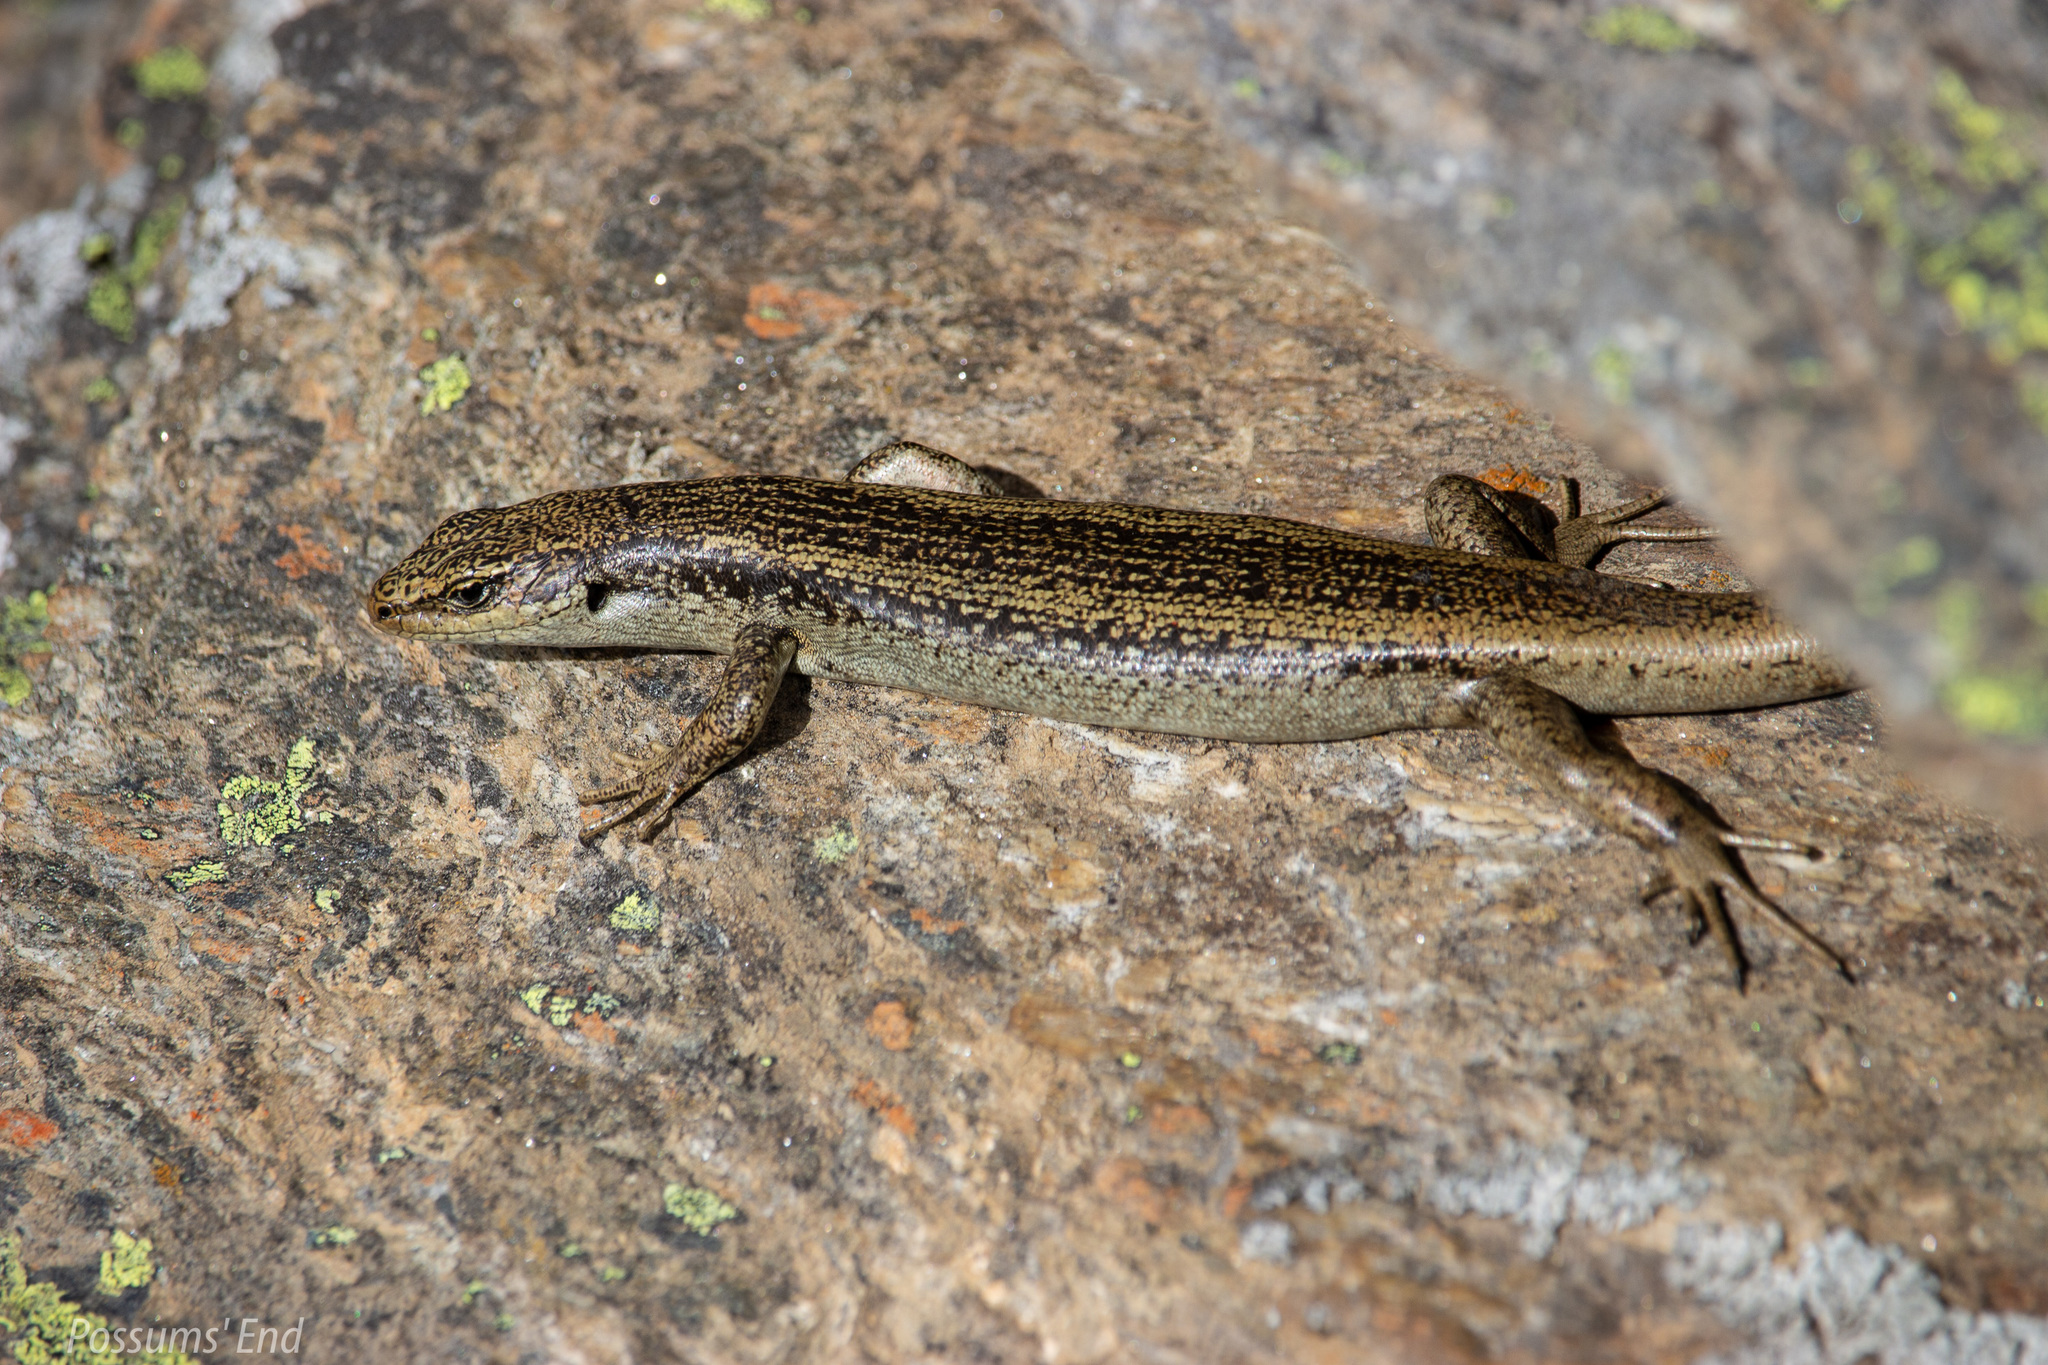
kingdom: Animalia
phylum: Chordata
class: Squamata
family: Scincidae
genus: Oligosoma
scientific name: Oligosoma grande
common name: Grand skink
